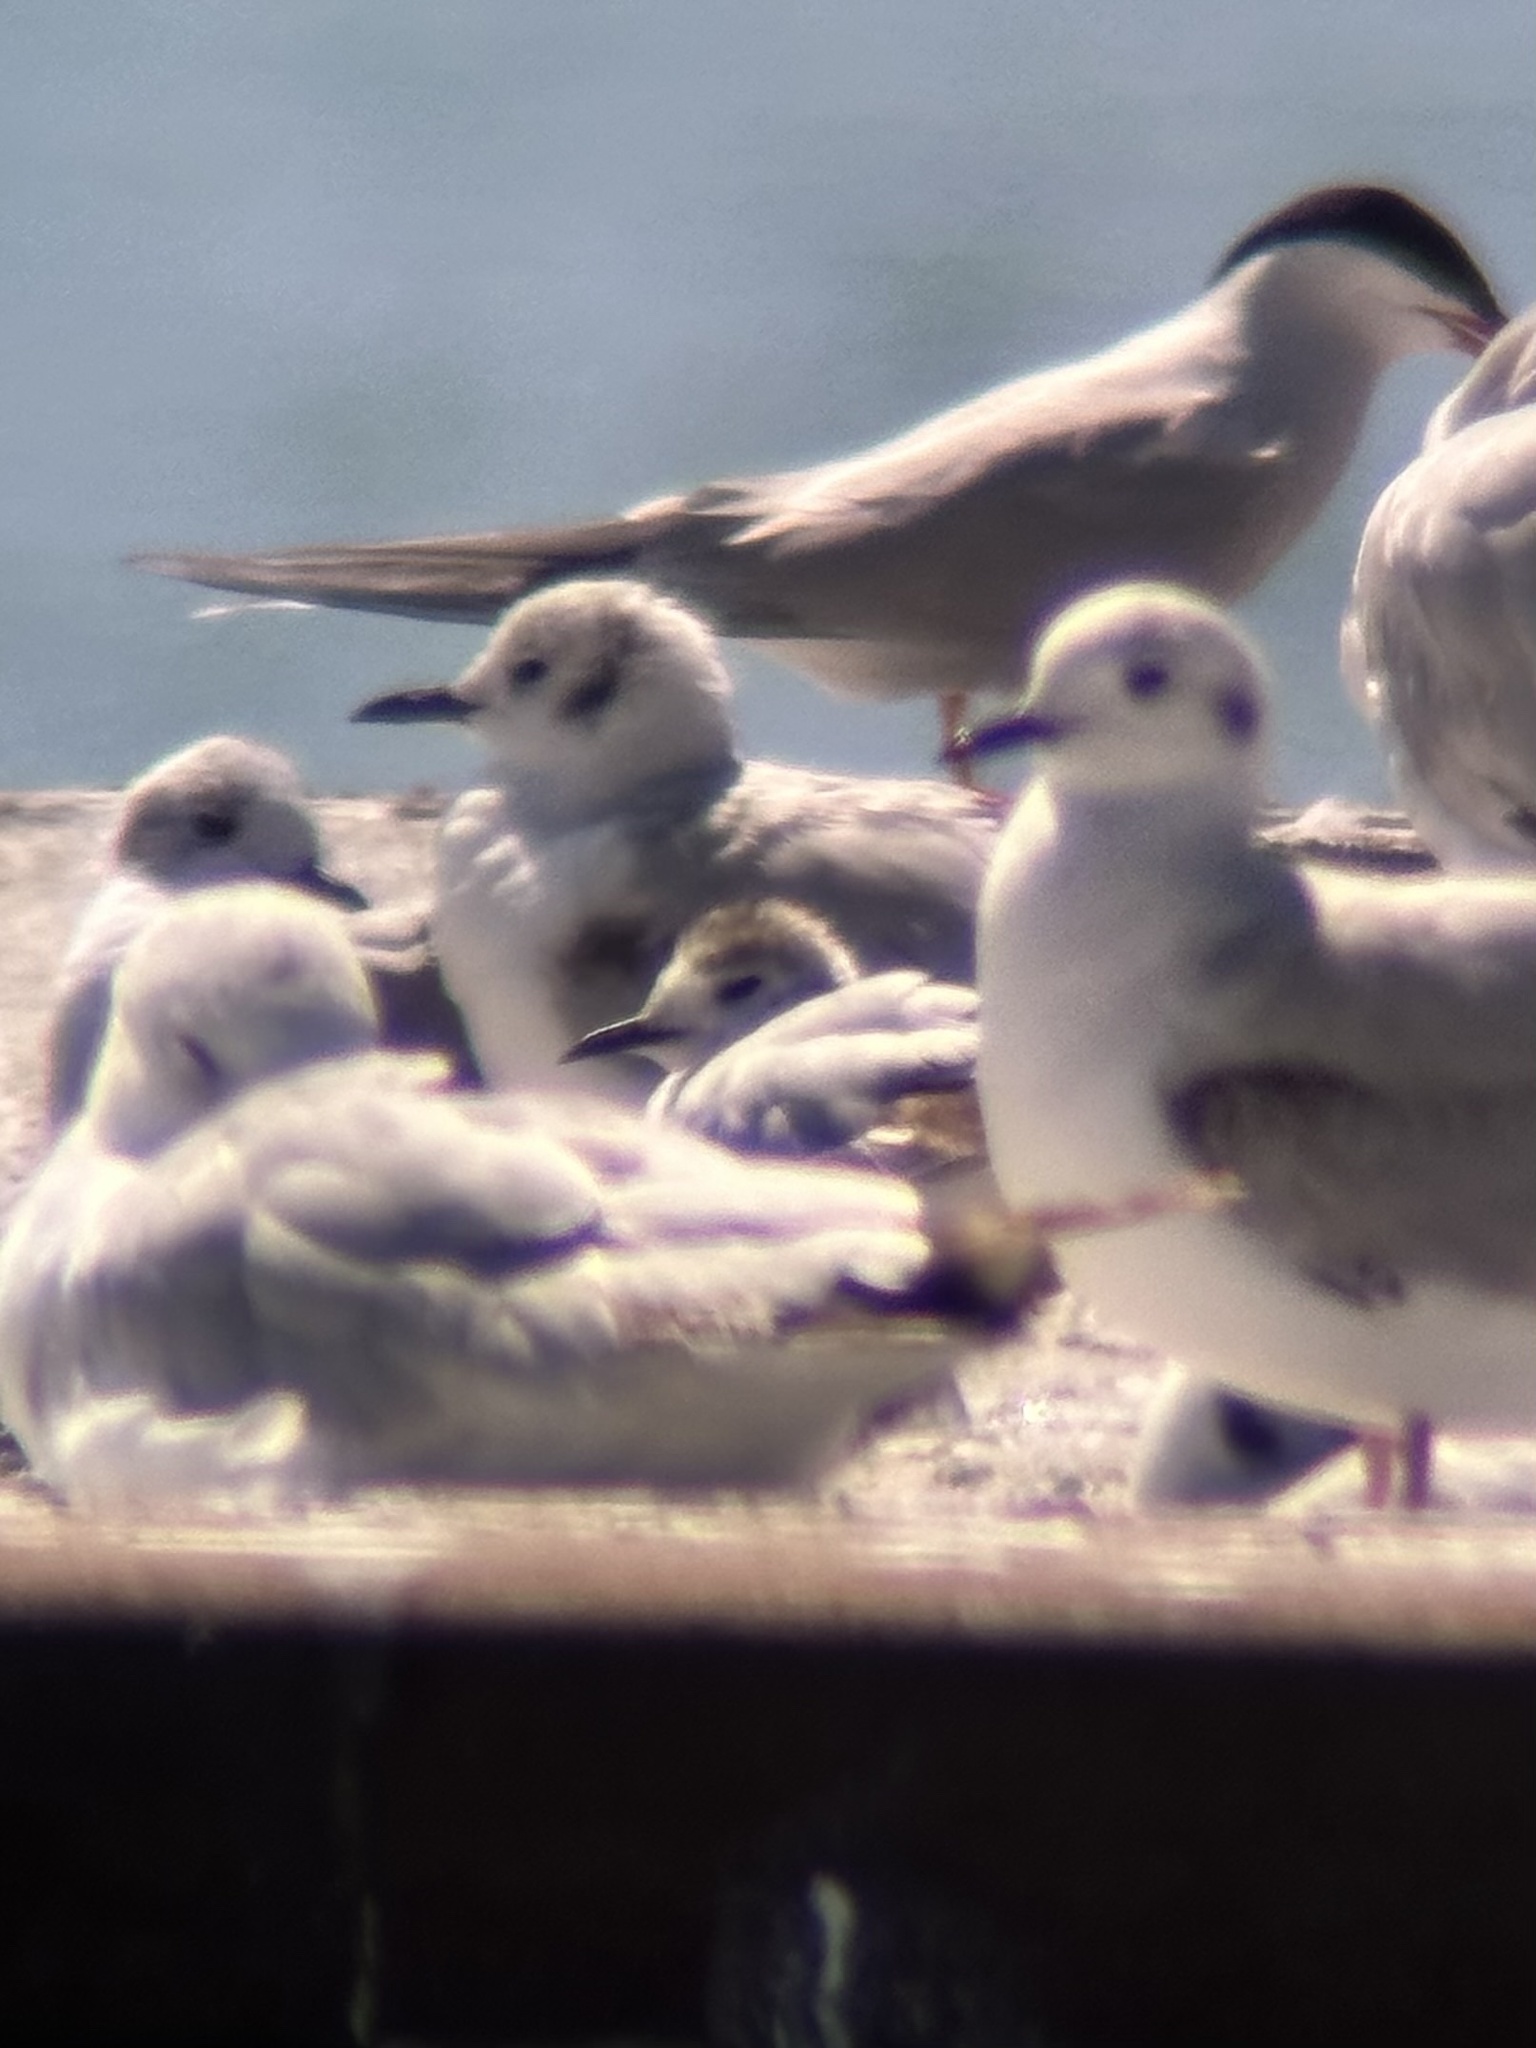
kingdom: Animalia
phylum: Chordata
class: Aves
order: Charadriiformes
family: Laridae
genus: Hydrocoloeus
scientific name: Hydrocoloeus minutus
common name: Little gull
